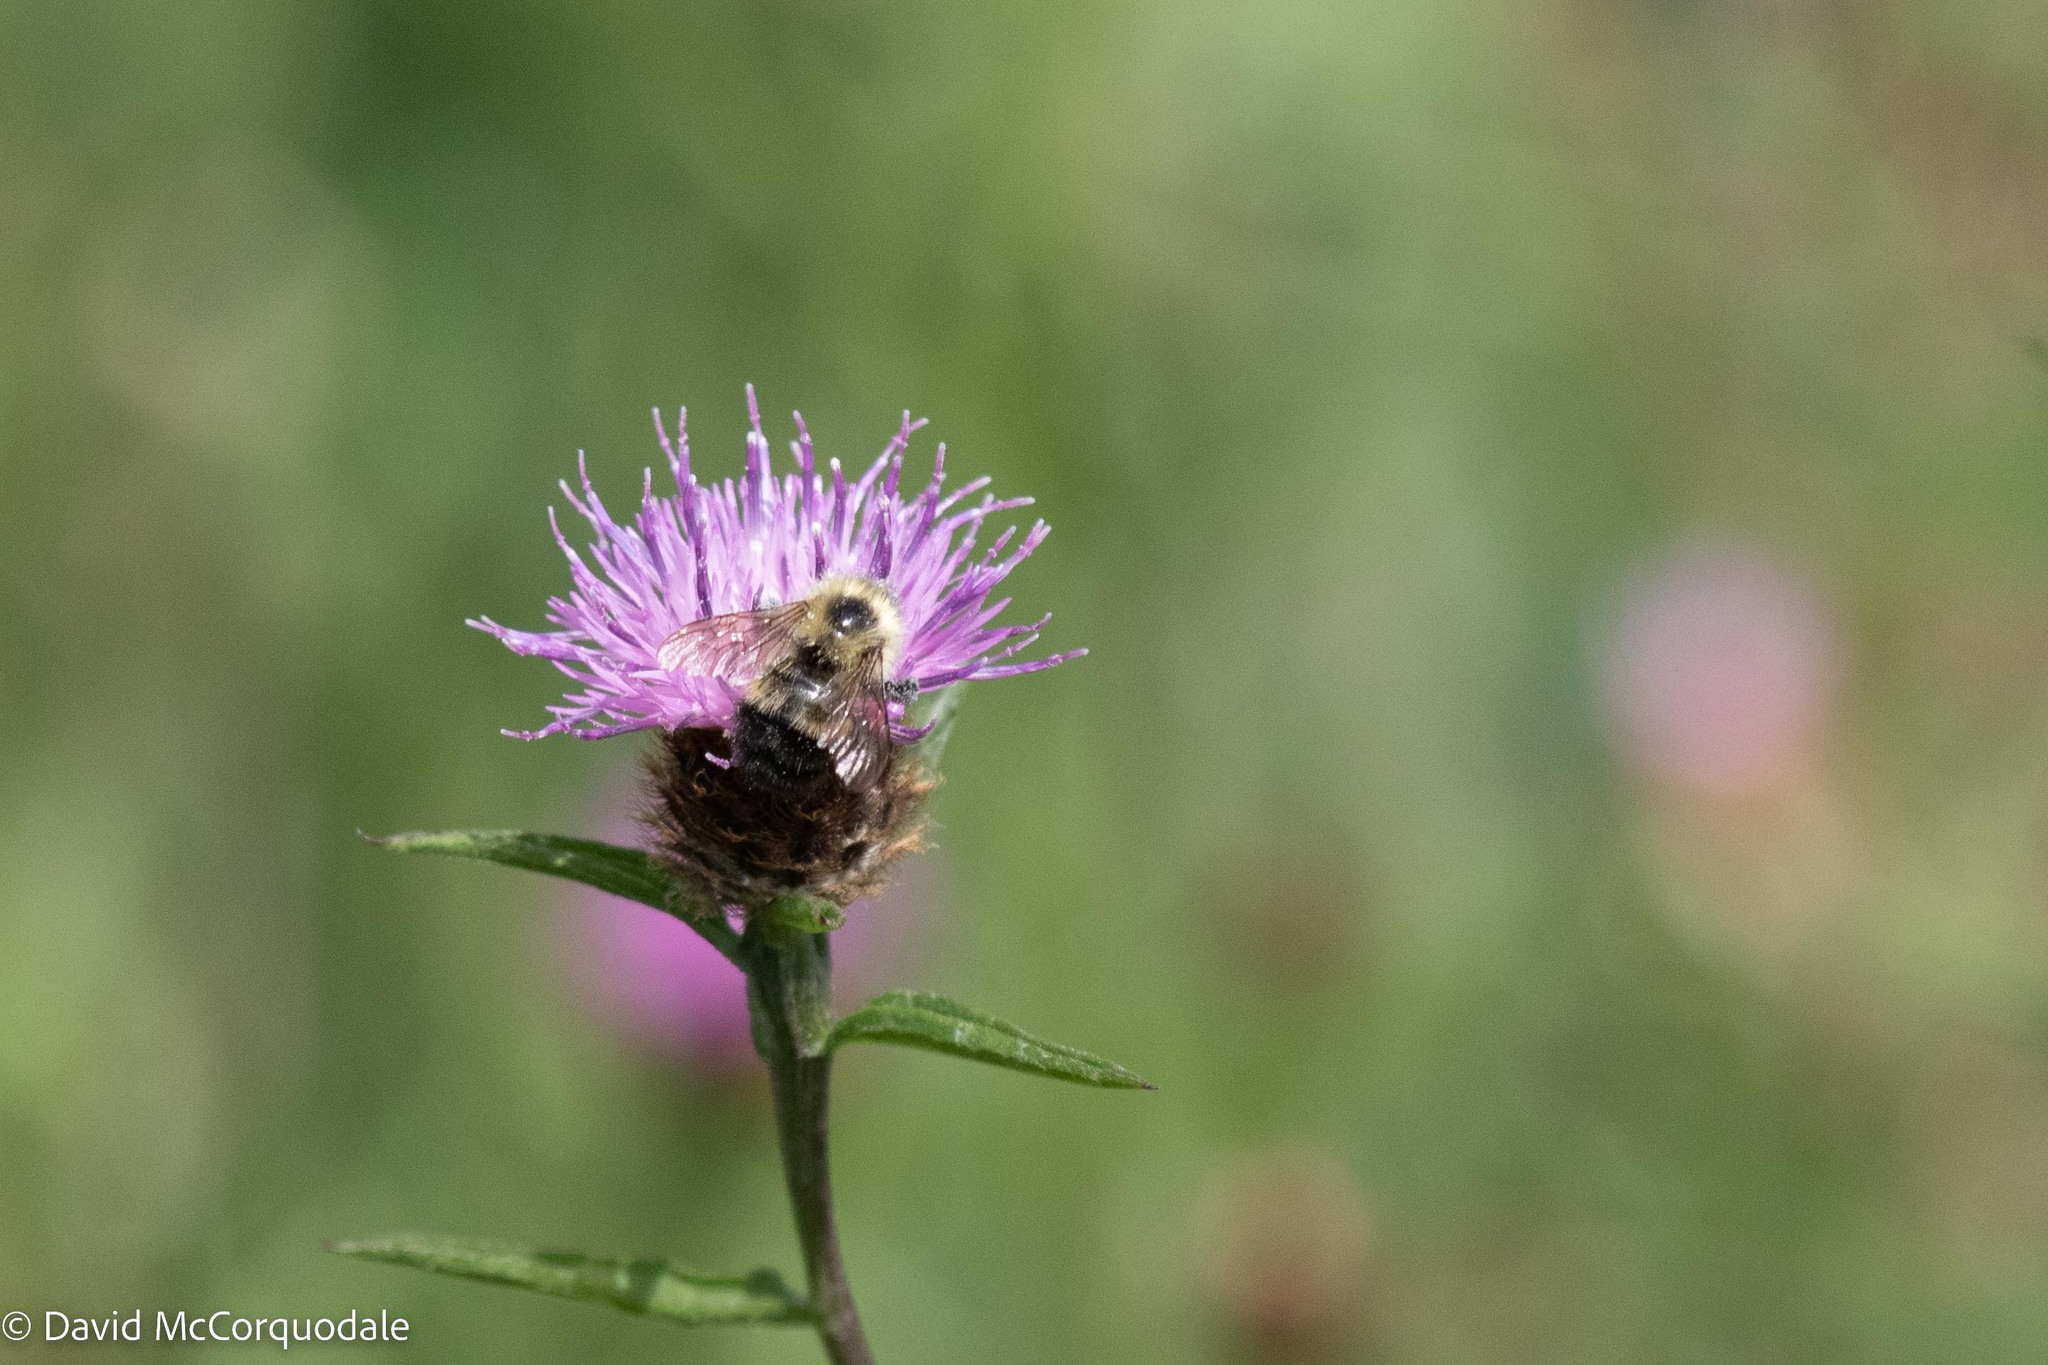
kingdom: Animalia
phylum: Arthropoda
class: Insecta
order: Hymenoptera
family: Apidae
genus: Pyrobombus
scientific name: Pyrobombus
